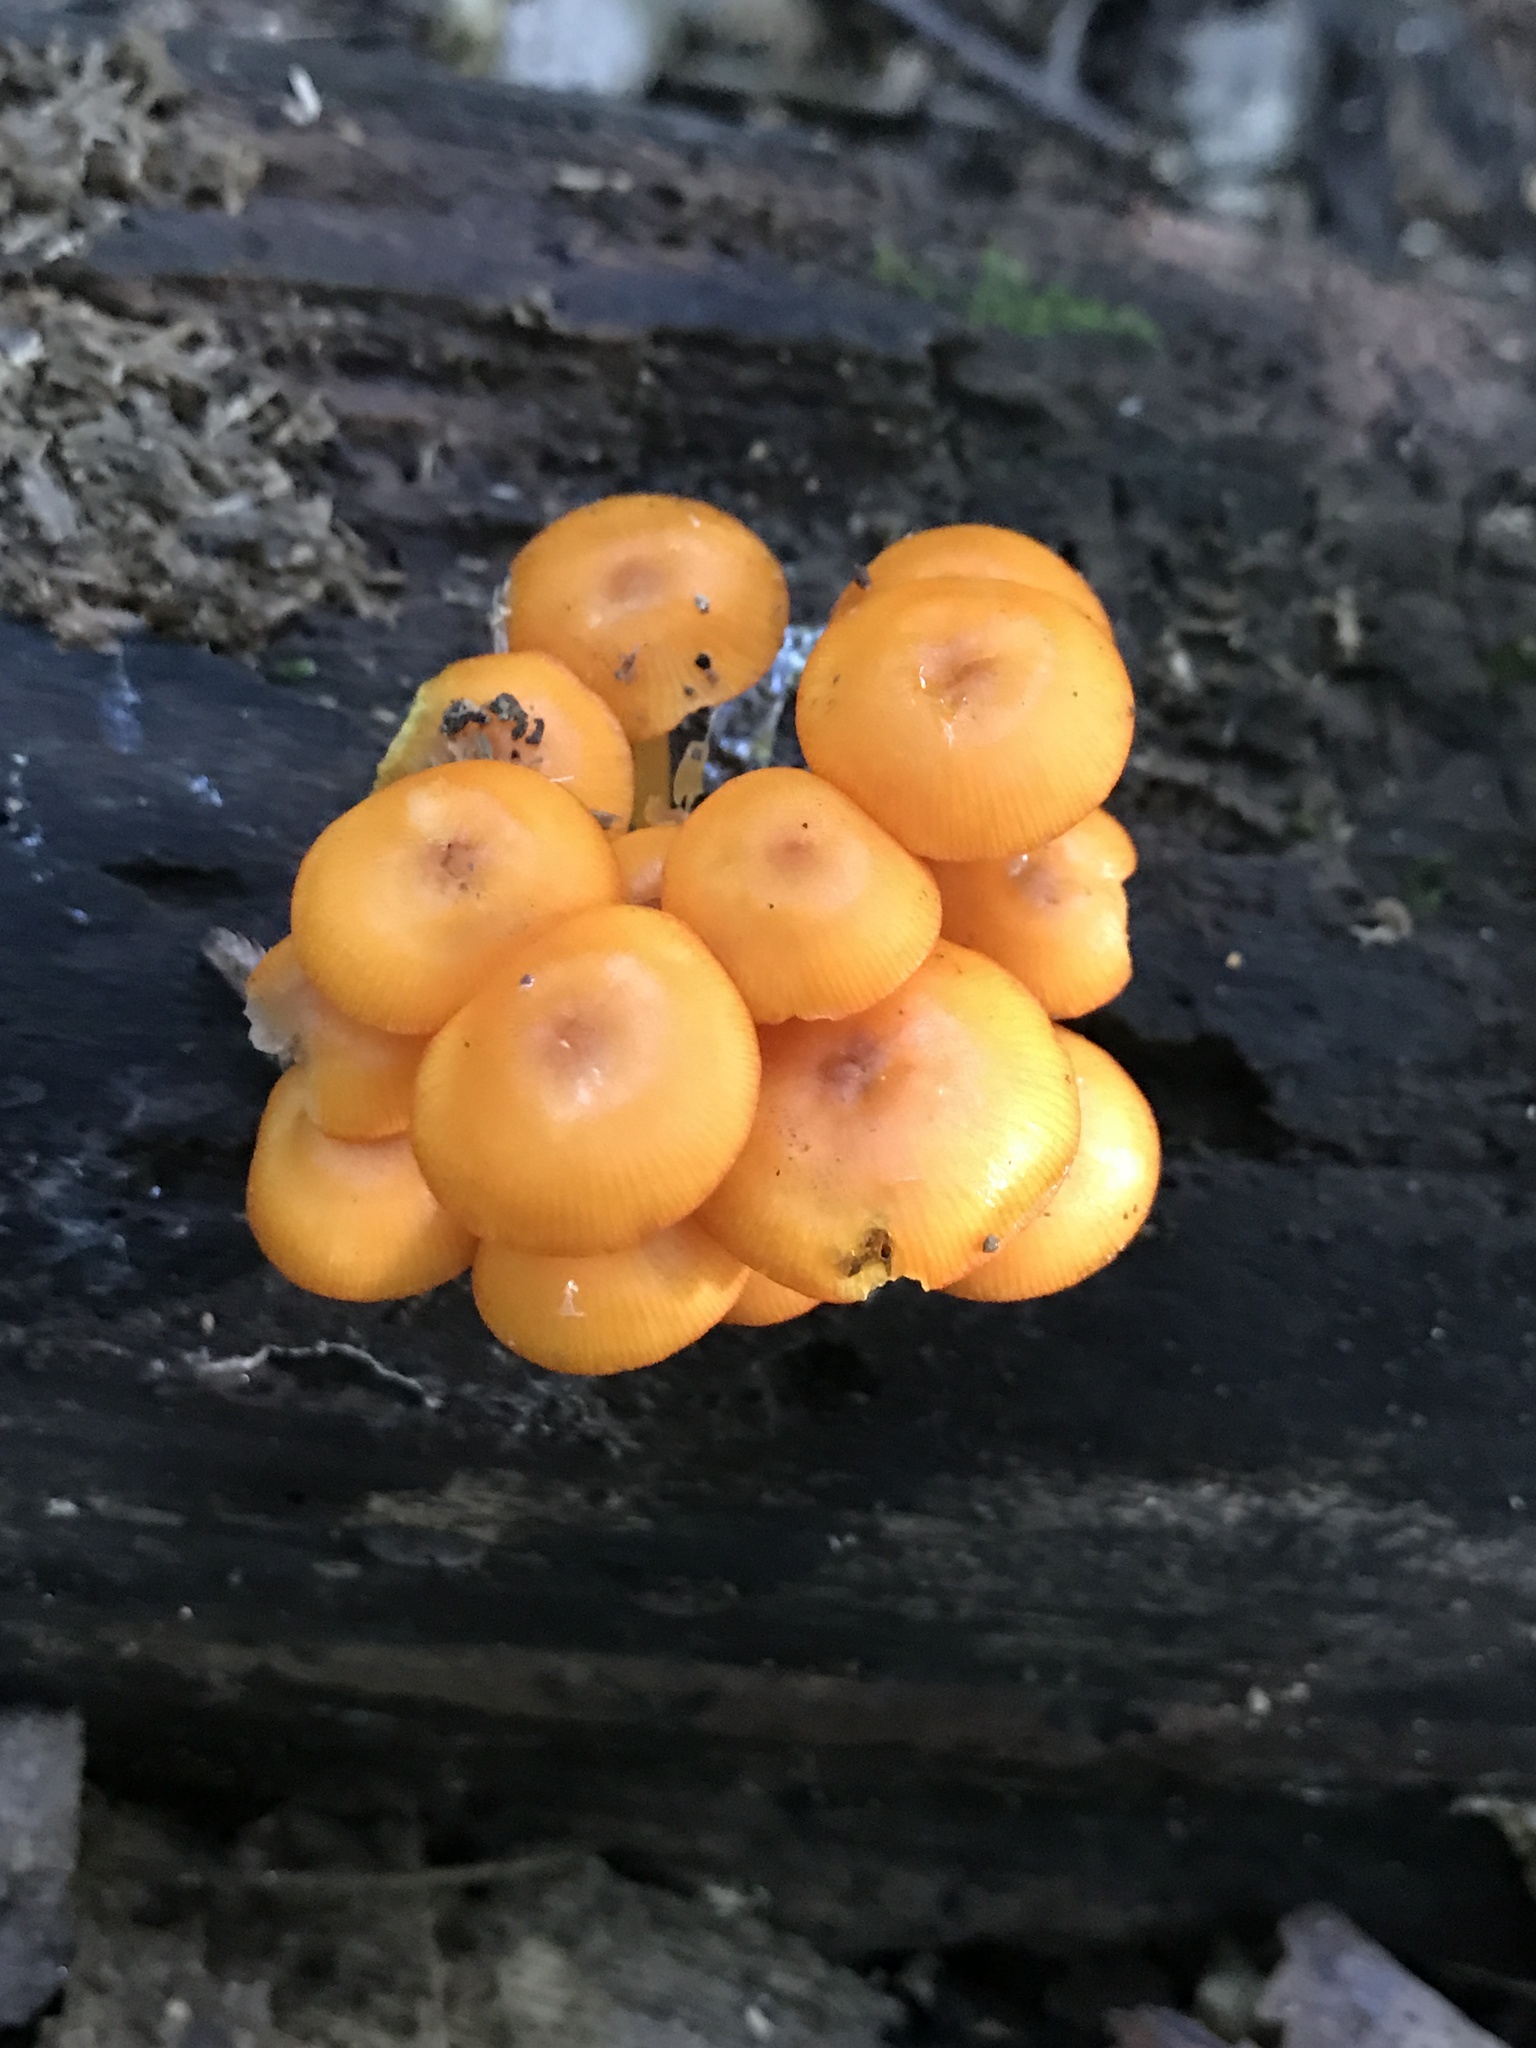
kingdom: Fungi
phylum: Basidiomycota
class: Agaricomycetes
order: Agaricales
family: Mycenaceae
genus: Mycena
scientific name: Mycena leaiana
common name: Orange mycena
